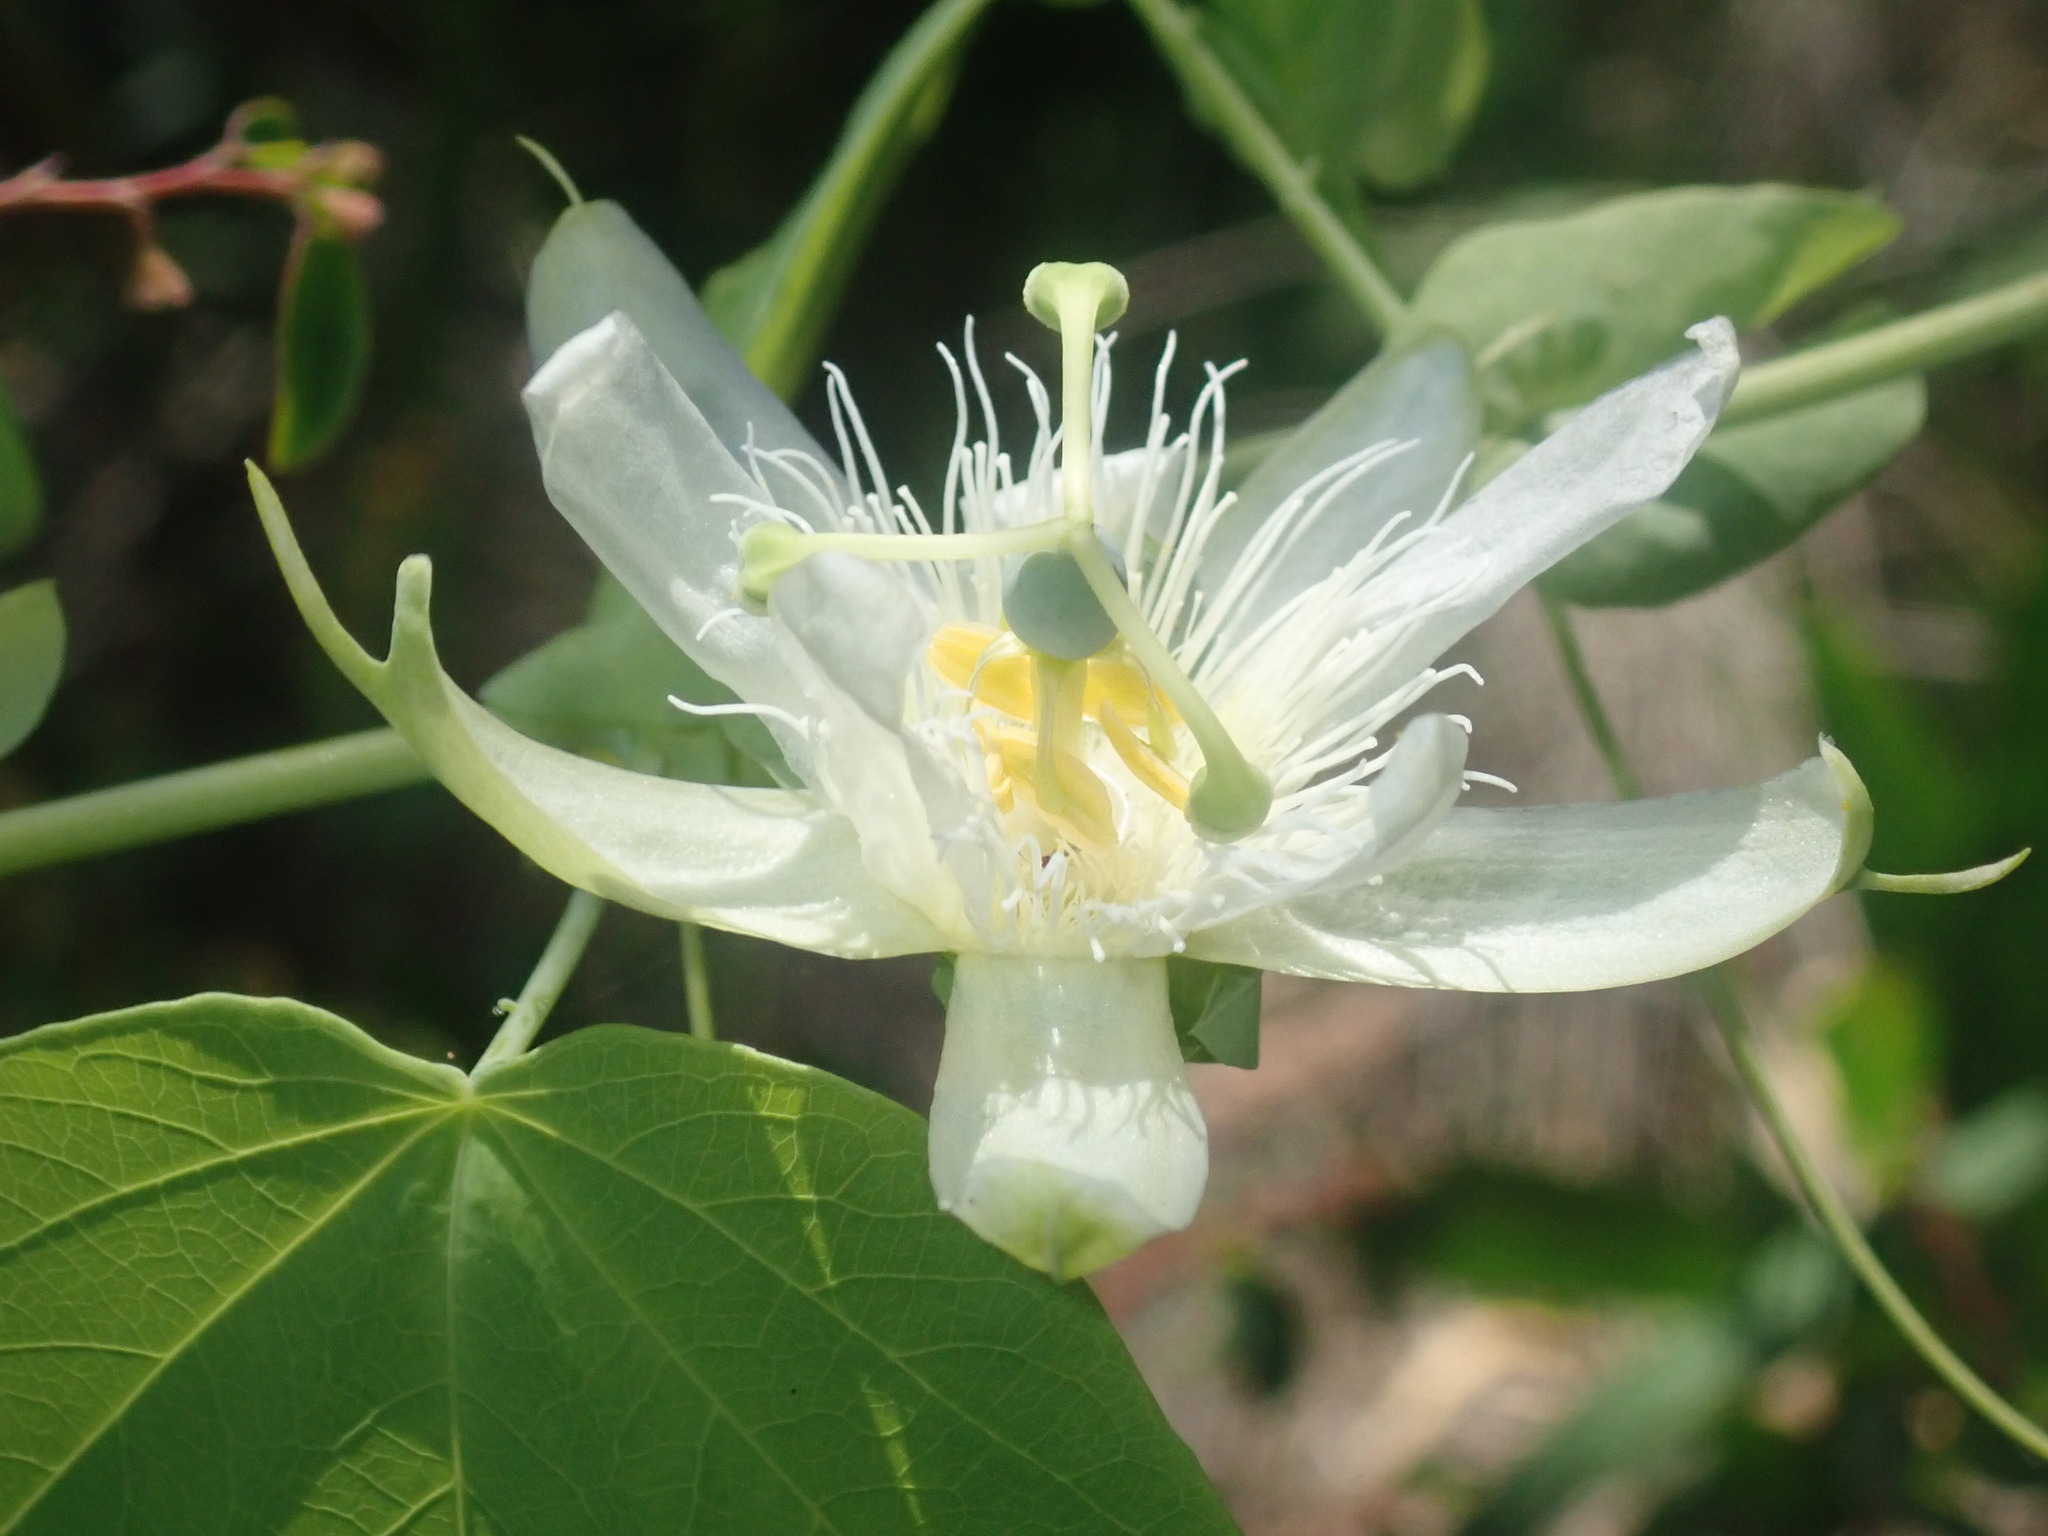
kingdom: Plantae
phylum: Tracheophyta
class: Magnoliopsida
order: Malpighiales
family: Passifloraceae
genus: Passiflora
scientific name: Passiflora subpeltata
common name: White passionflower
